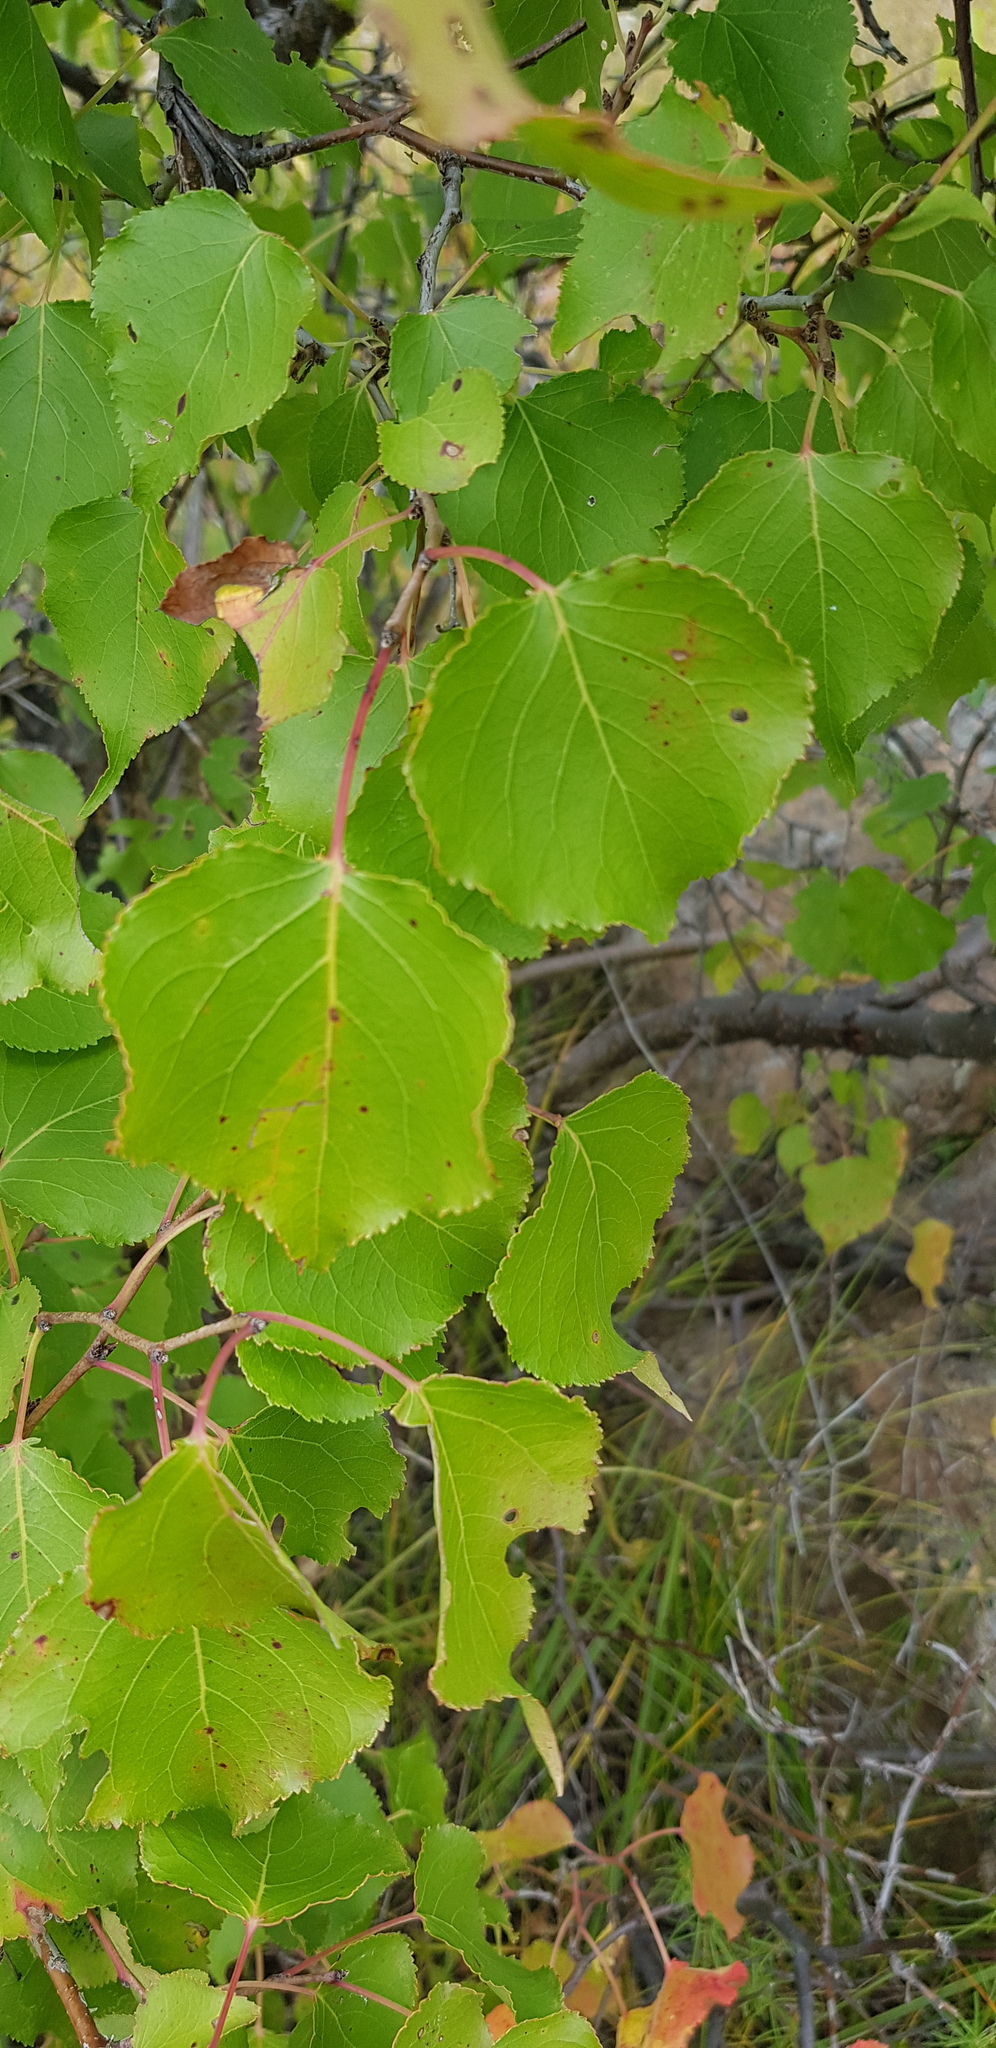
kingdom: Plantae
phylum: Tracheophyta
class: Magnoliopsida
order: Rosales
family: Rosaceae
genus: Prunus
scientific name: Prunus sibirica
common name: Siberian apricot
